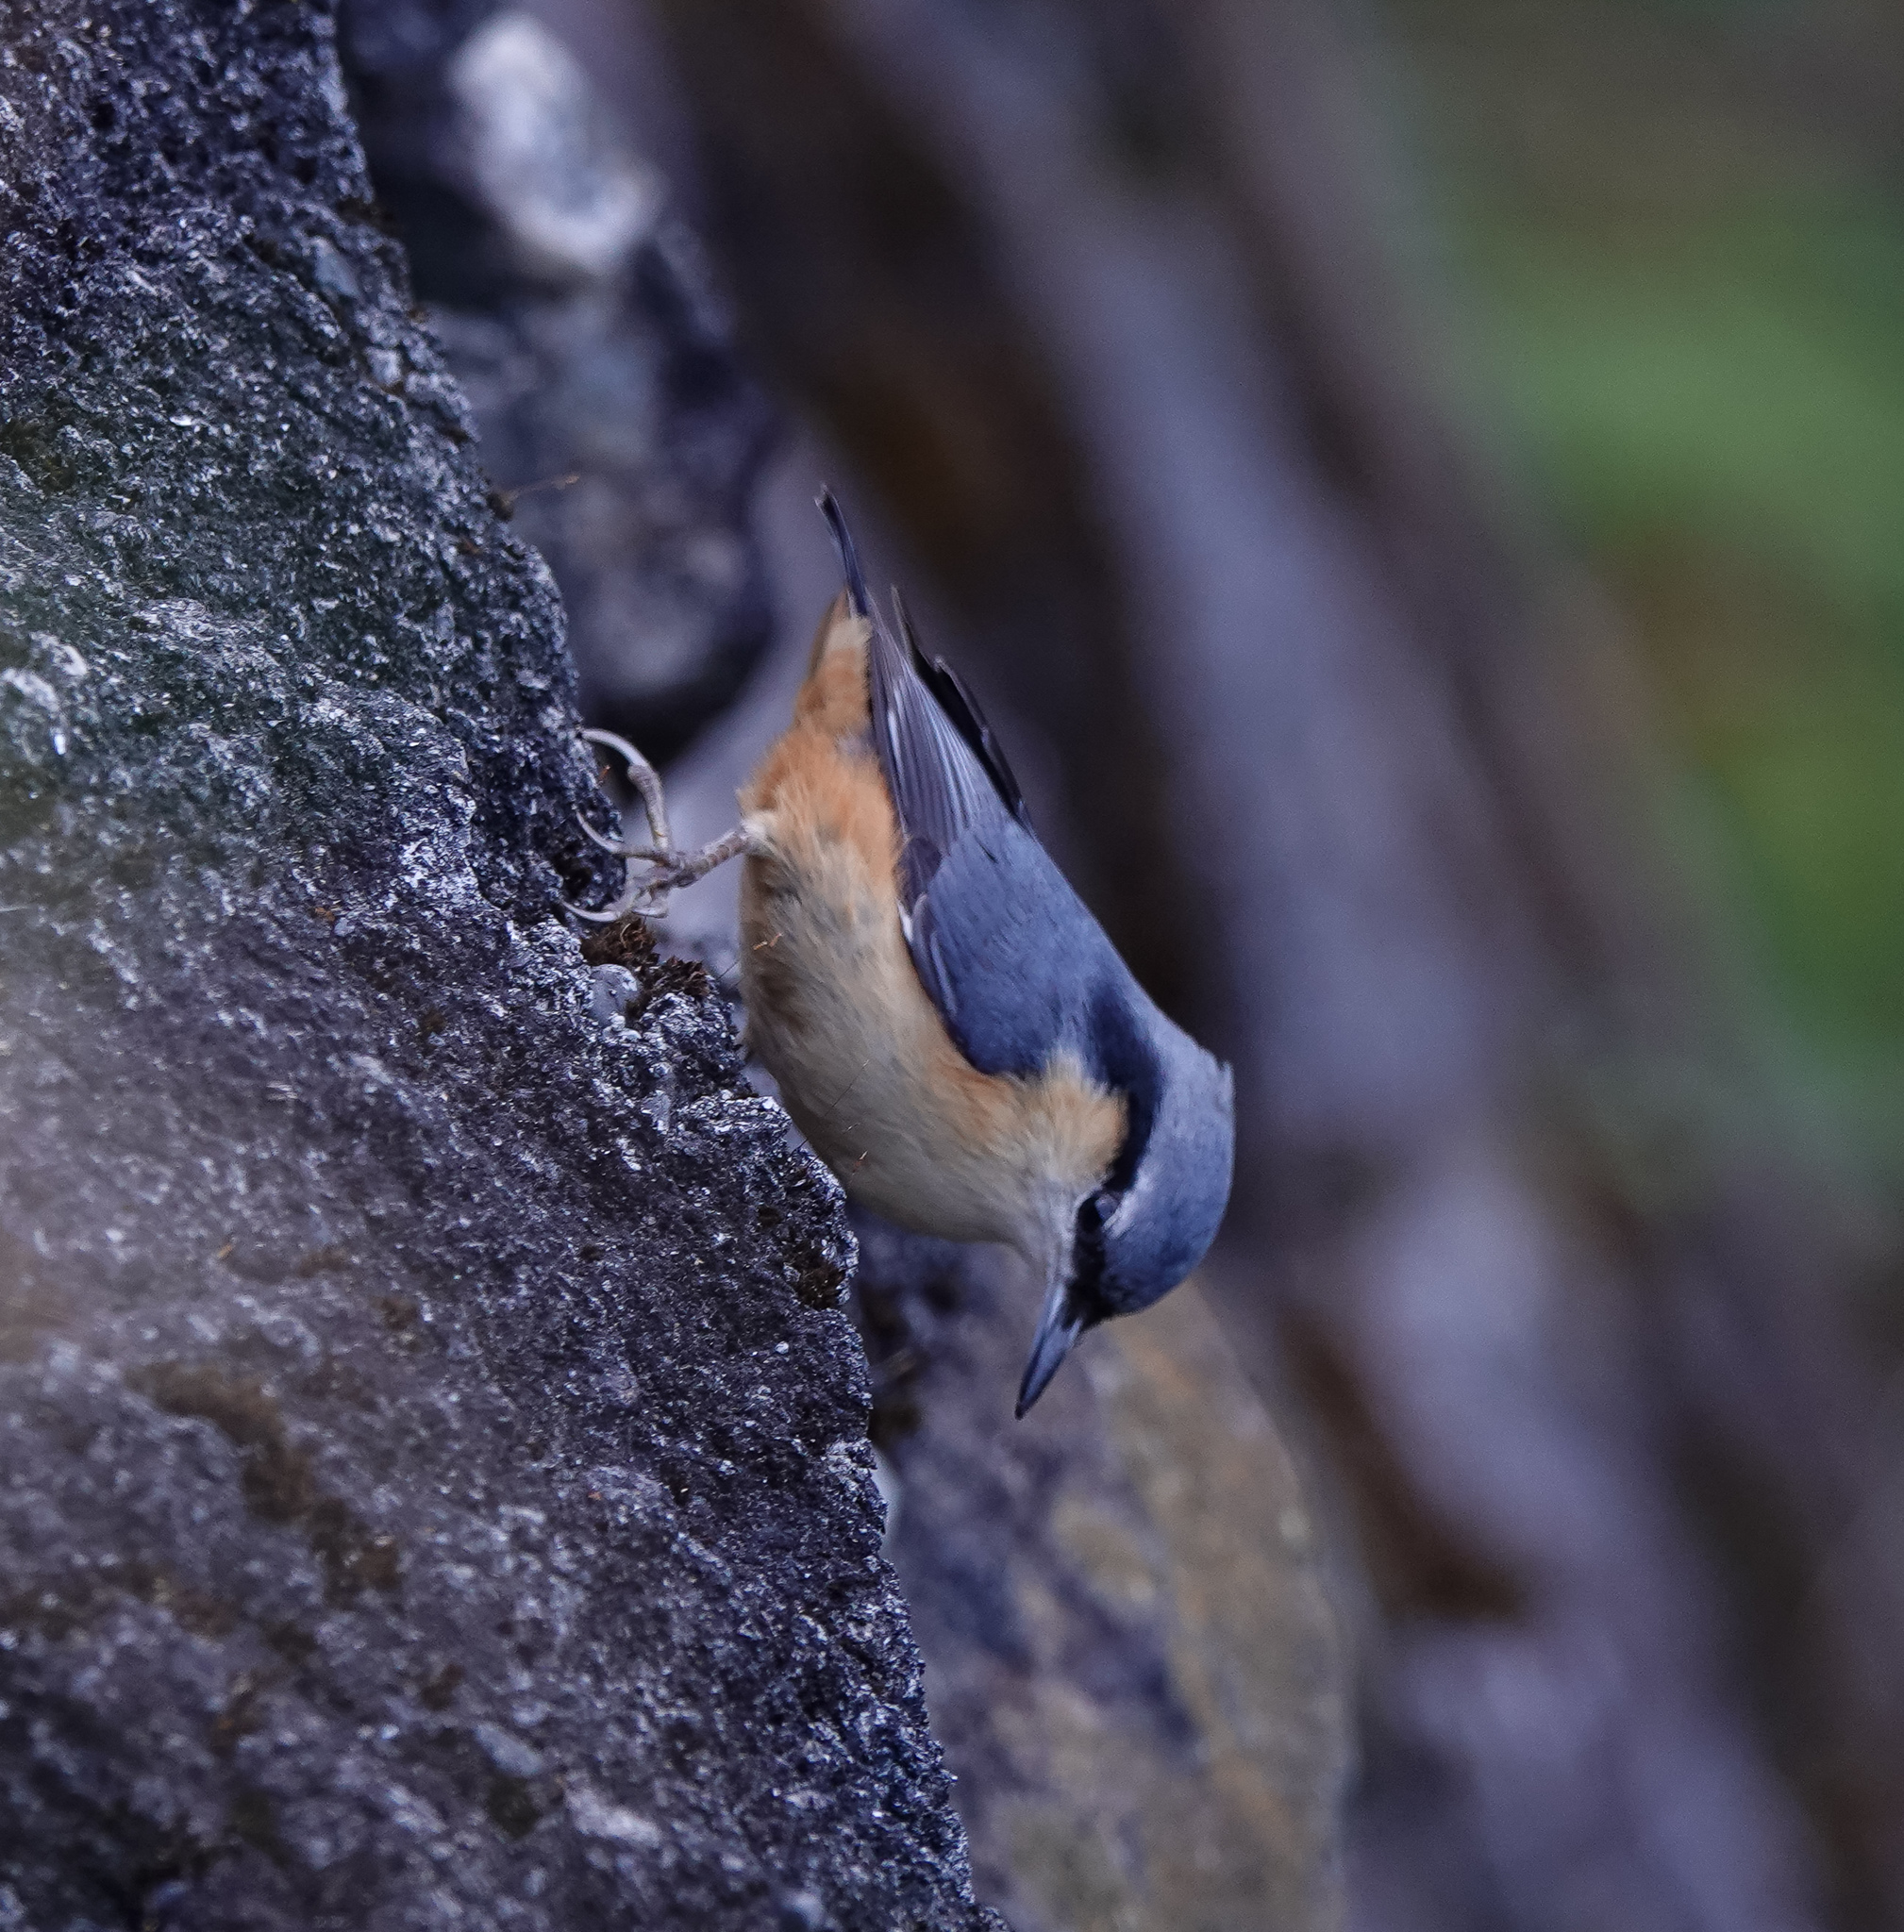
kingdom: Animalia
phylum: Chordata
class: Aves
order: Passeriformes
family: Sittidae
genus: Sitta
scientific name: Sitta himalayensis
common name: White-tailed nuthatch
